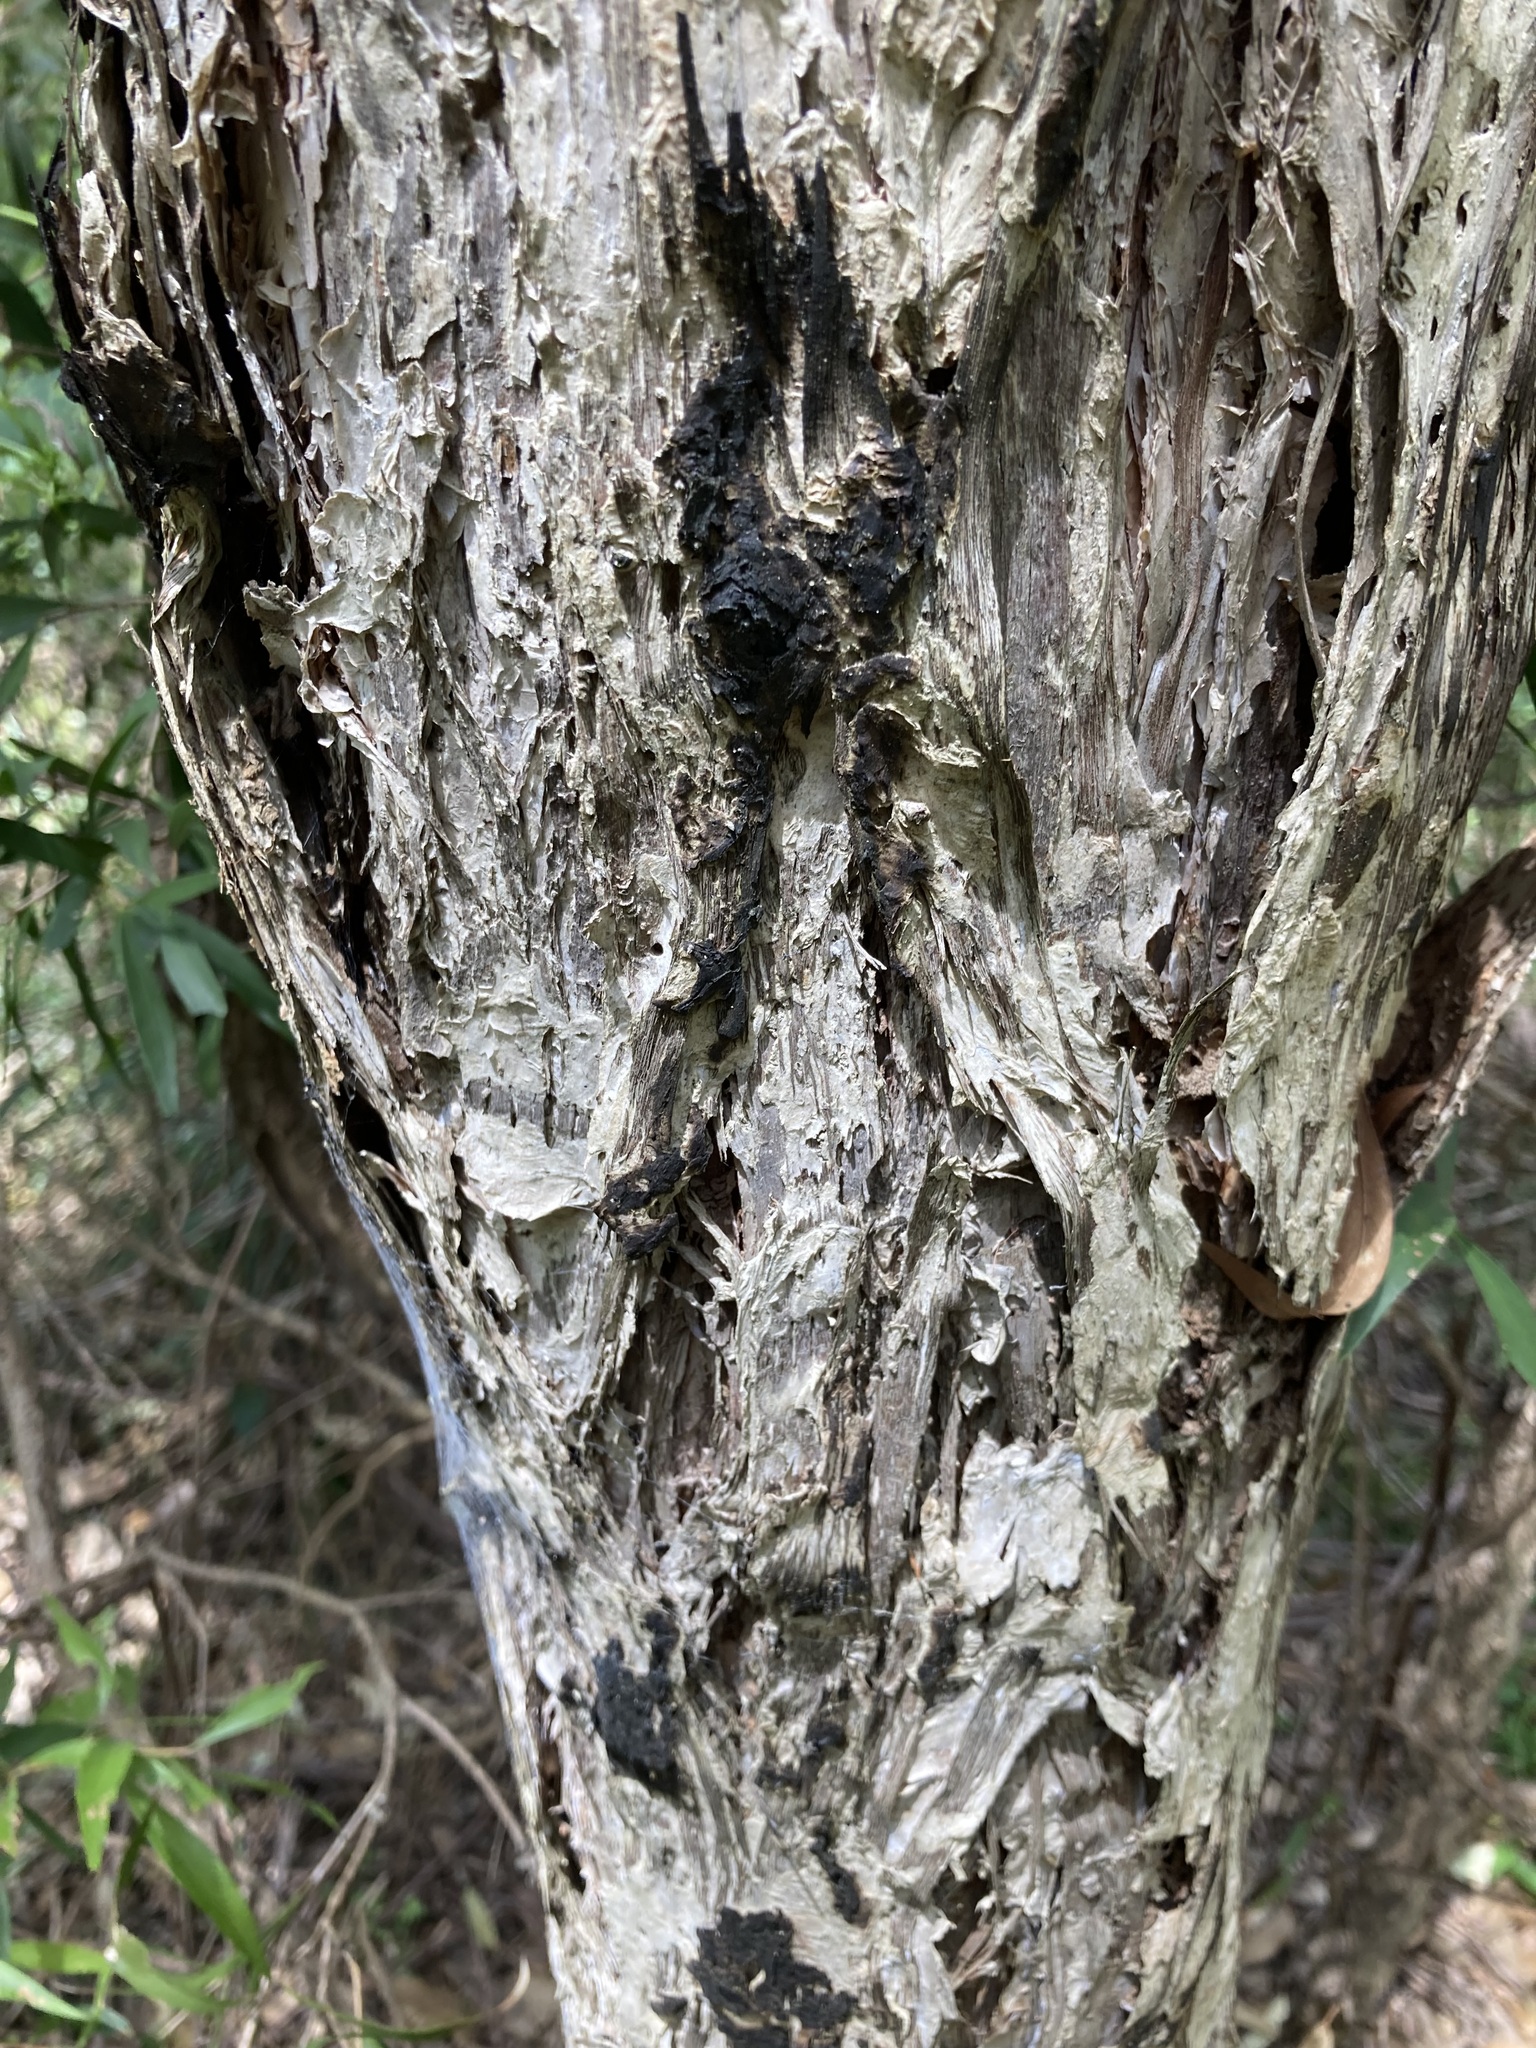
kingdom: Plantae
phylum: Tracheophyta
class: Magnoliopsida
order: Myrtales
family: Myrtaceae
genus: Callistemon
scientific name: Callistemon salignus
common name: White bottlebrush
